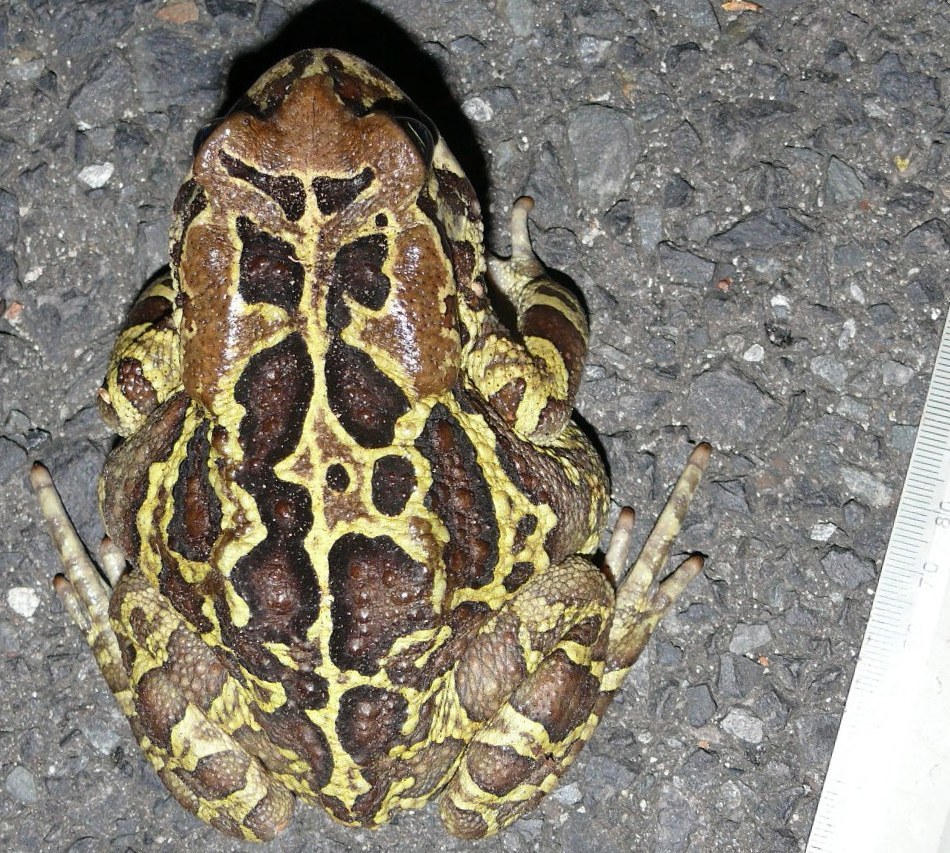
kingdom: Animalia
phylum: Chordata
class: Amphibia
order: Anura
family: Bufonidae
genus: Sclerophrys
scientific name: Sclerophrys pantherina
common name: Panther toad
